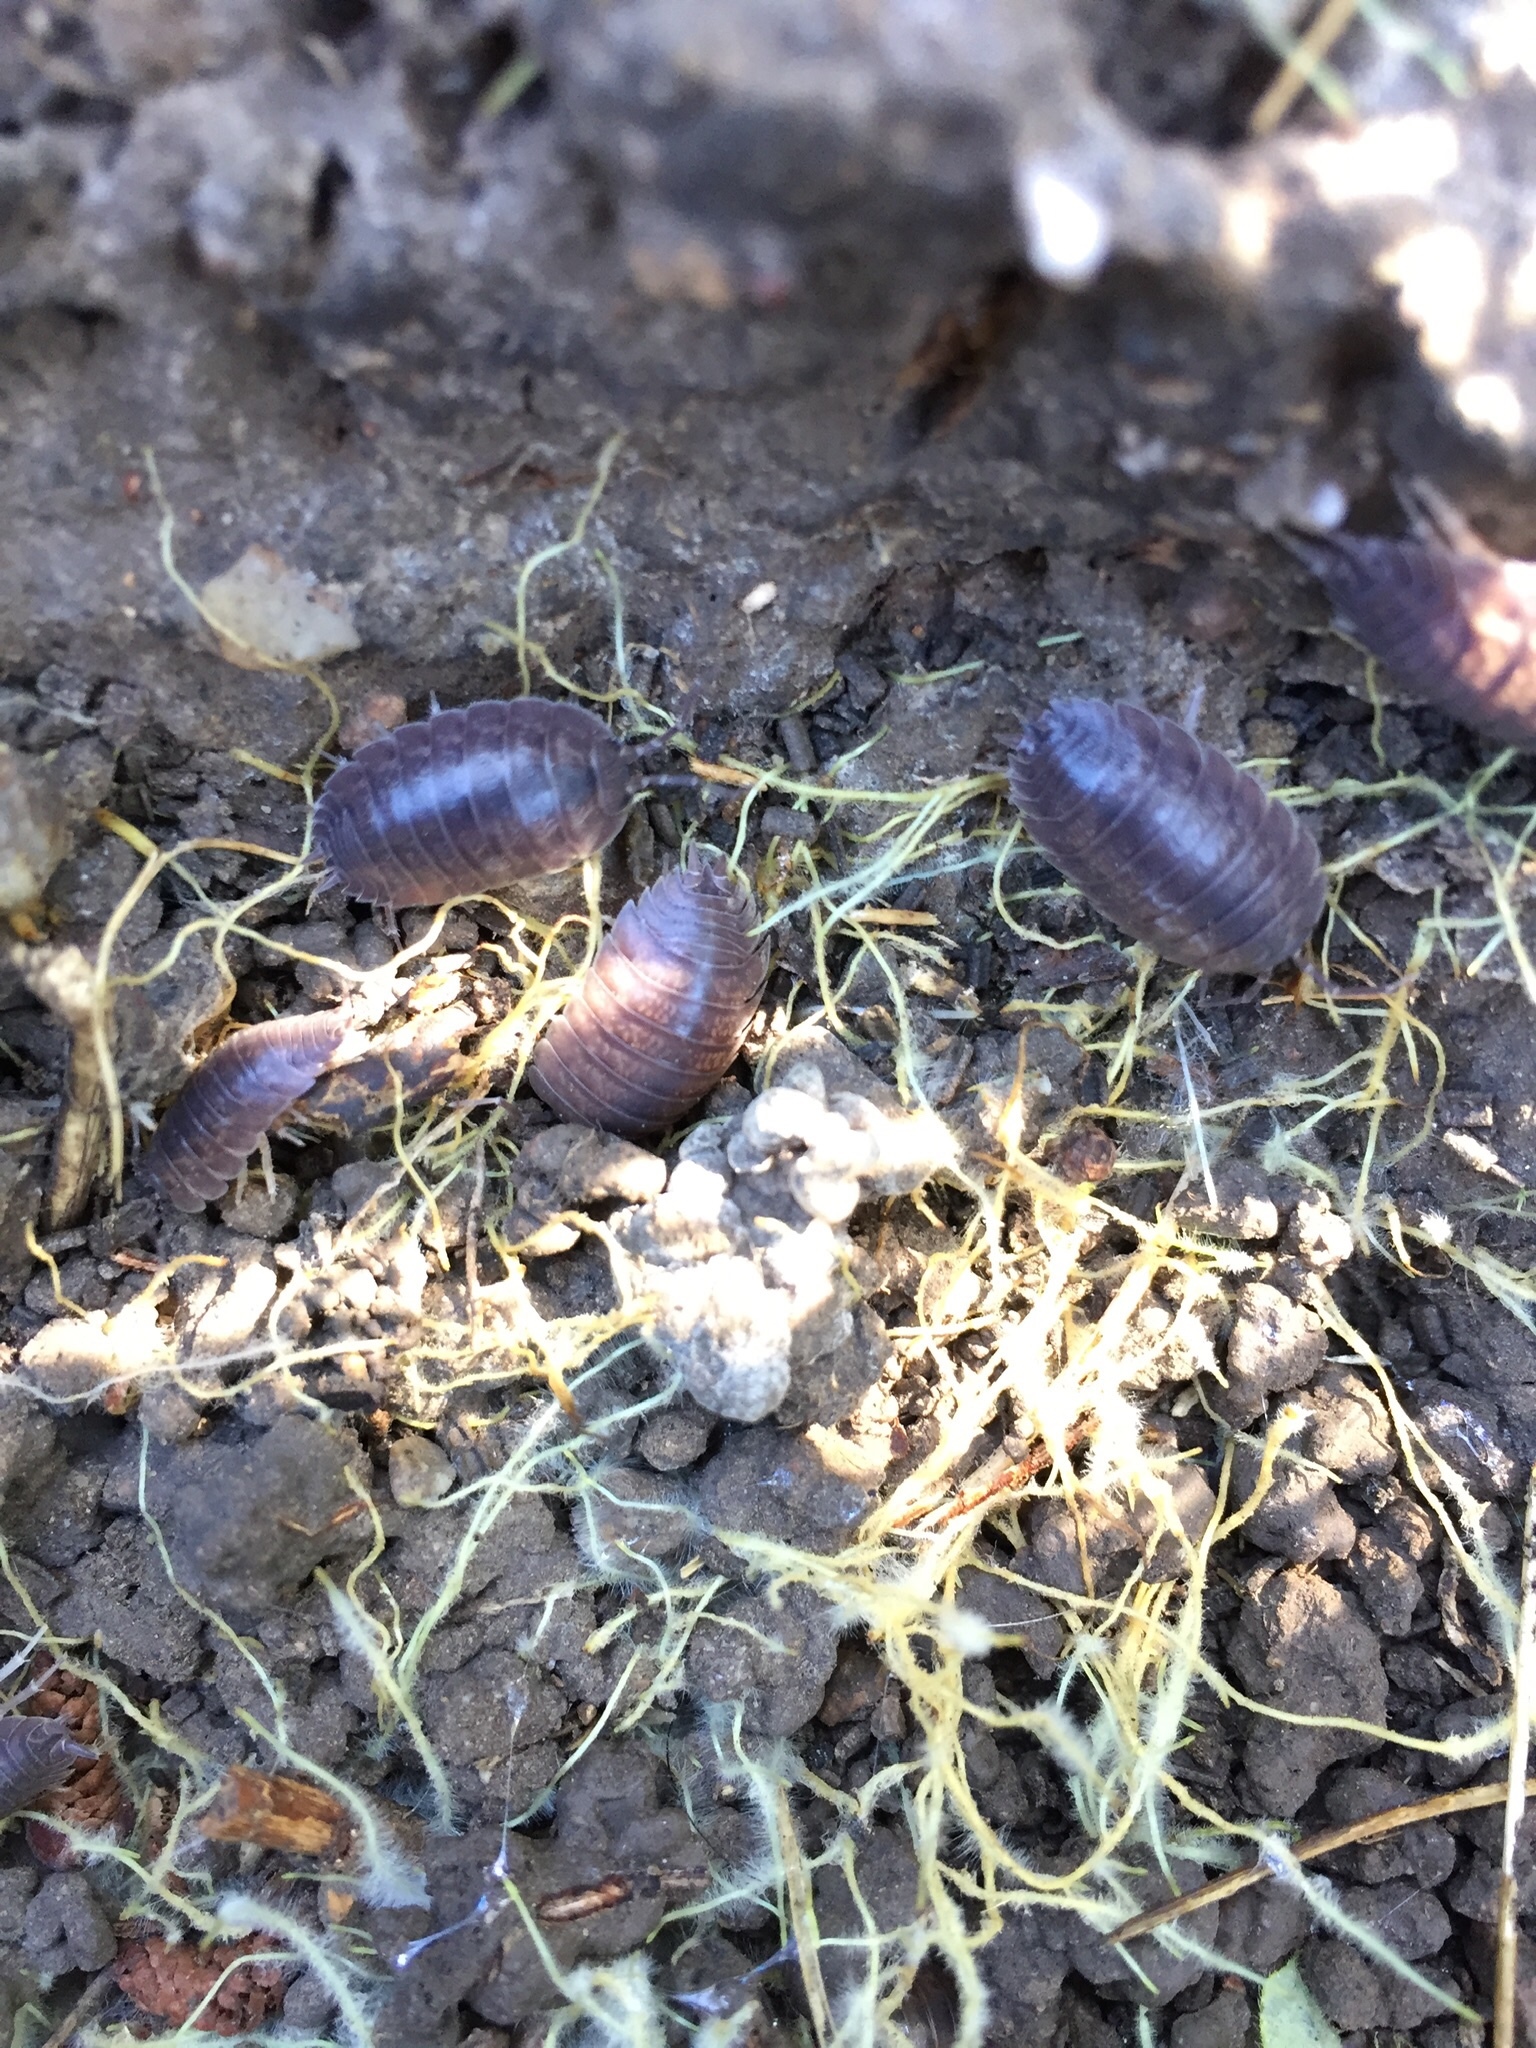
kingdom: Animalia
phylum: Arthropoda
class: Malacostraca
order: Isopoda
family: Porcellionidae
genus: Porcellio
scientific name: Porcellio laevis
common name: Swift woodlouse
